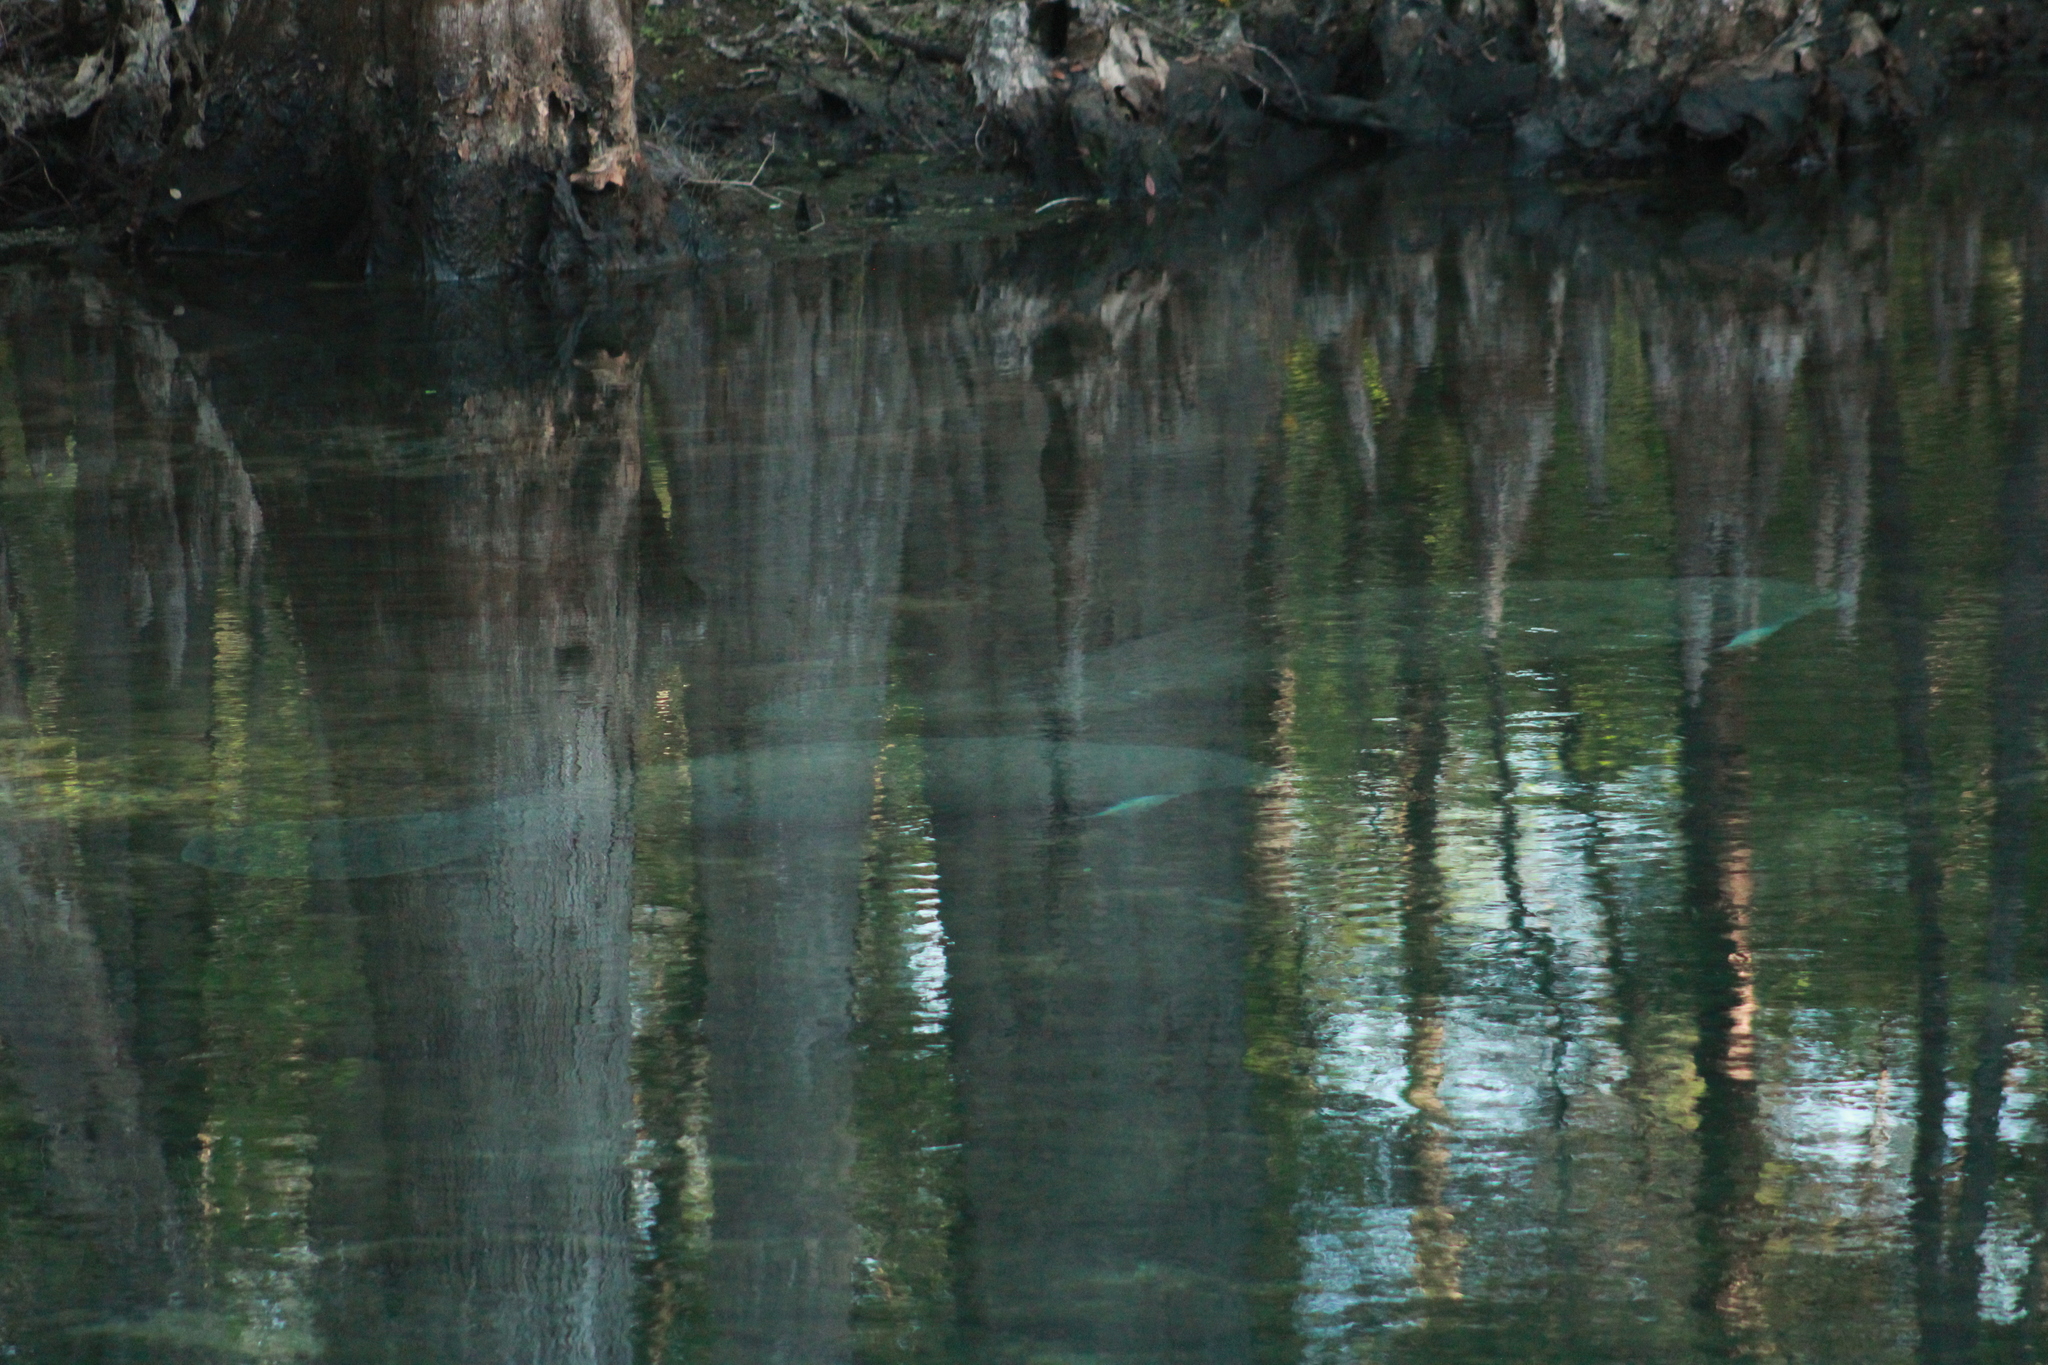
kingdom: Animalia
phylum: Chordata
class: Mammalia
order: Sirenia
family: Trichechidae
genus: Trichechus
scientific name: Trichechus manatus
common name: West indian manatee
